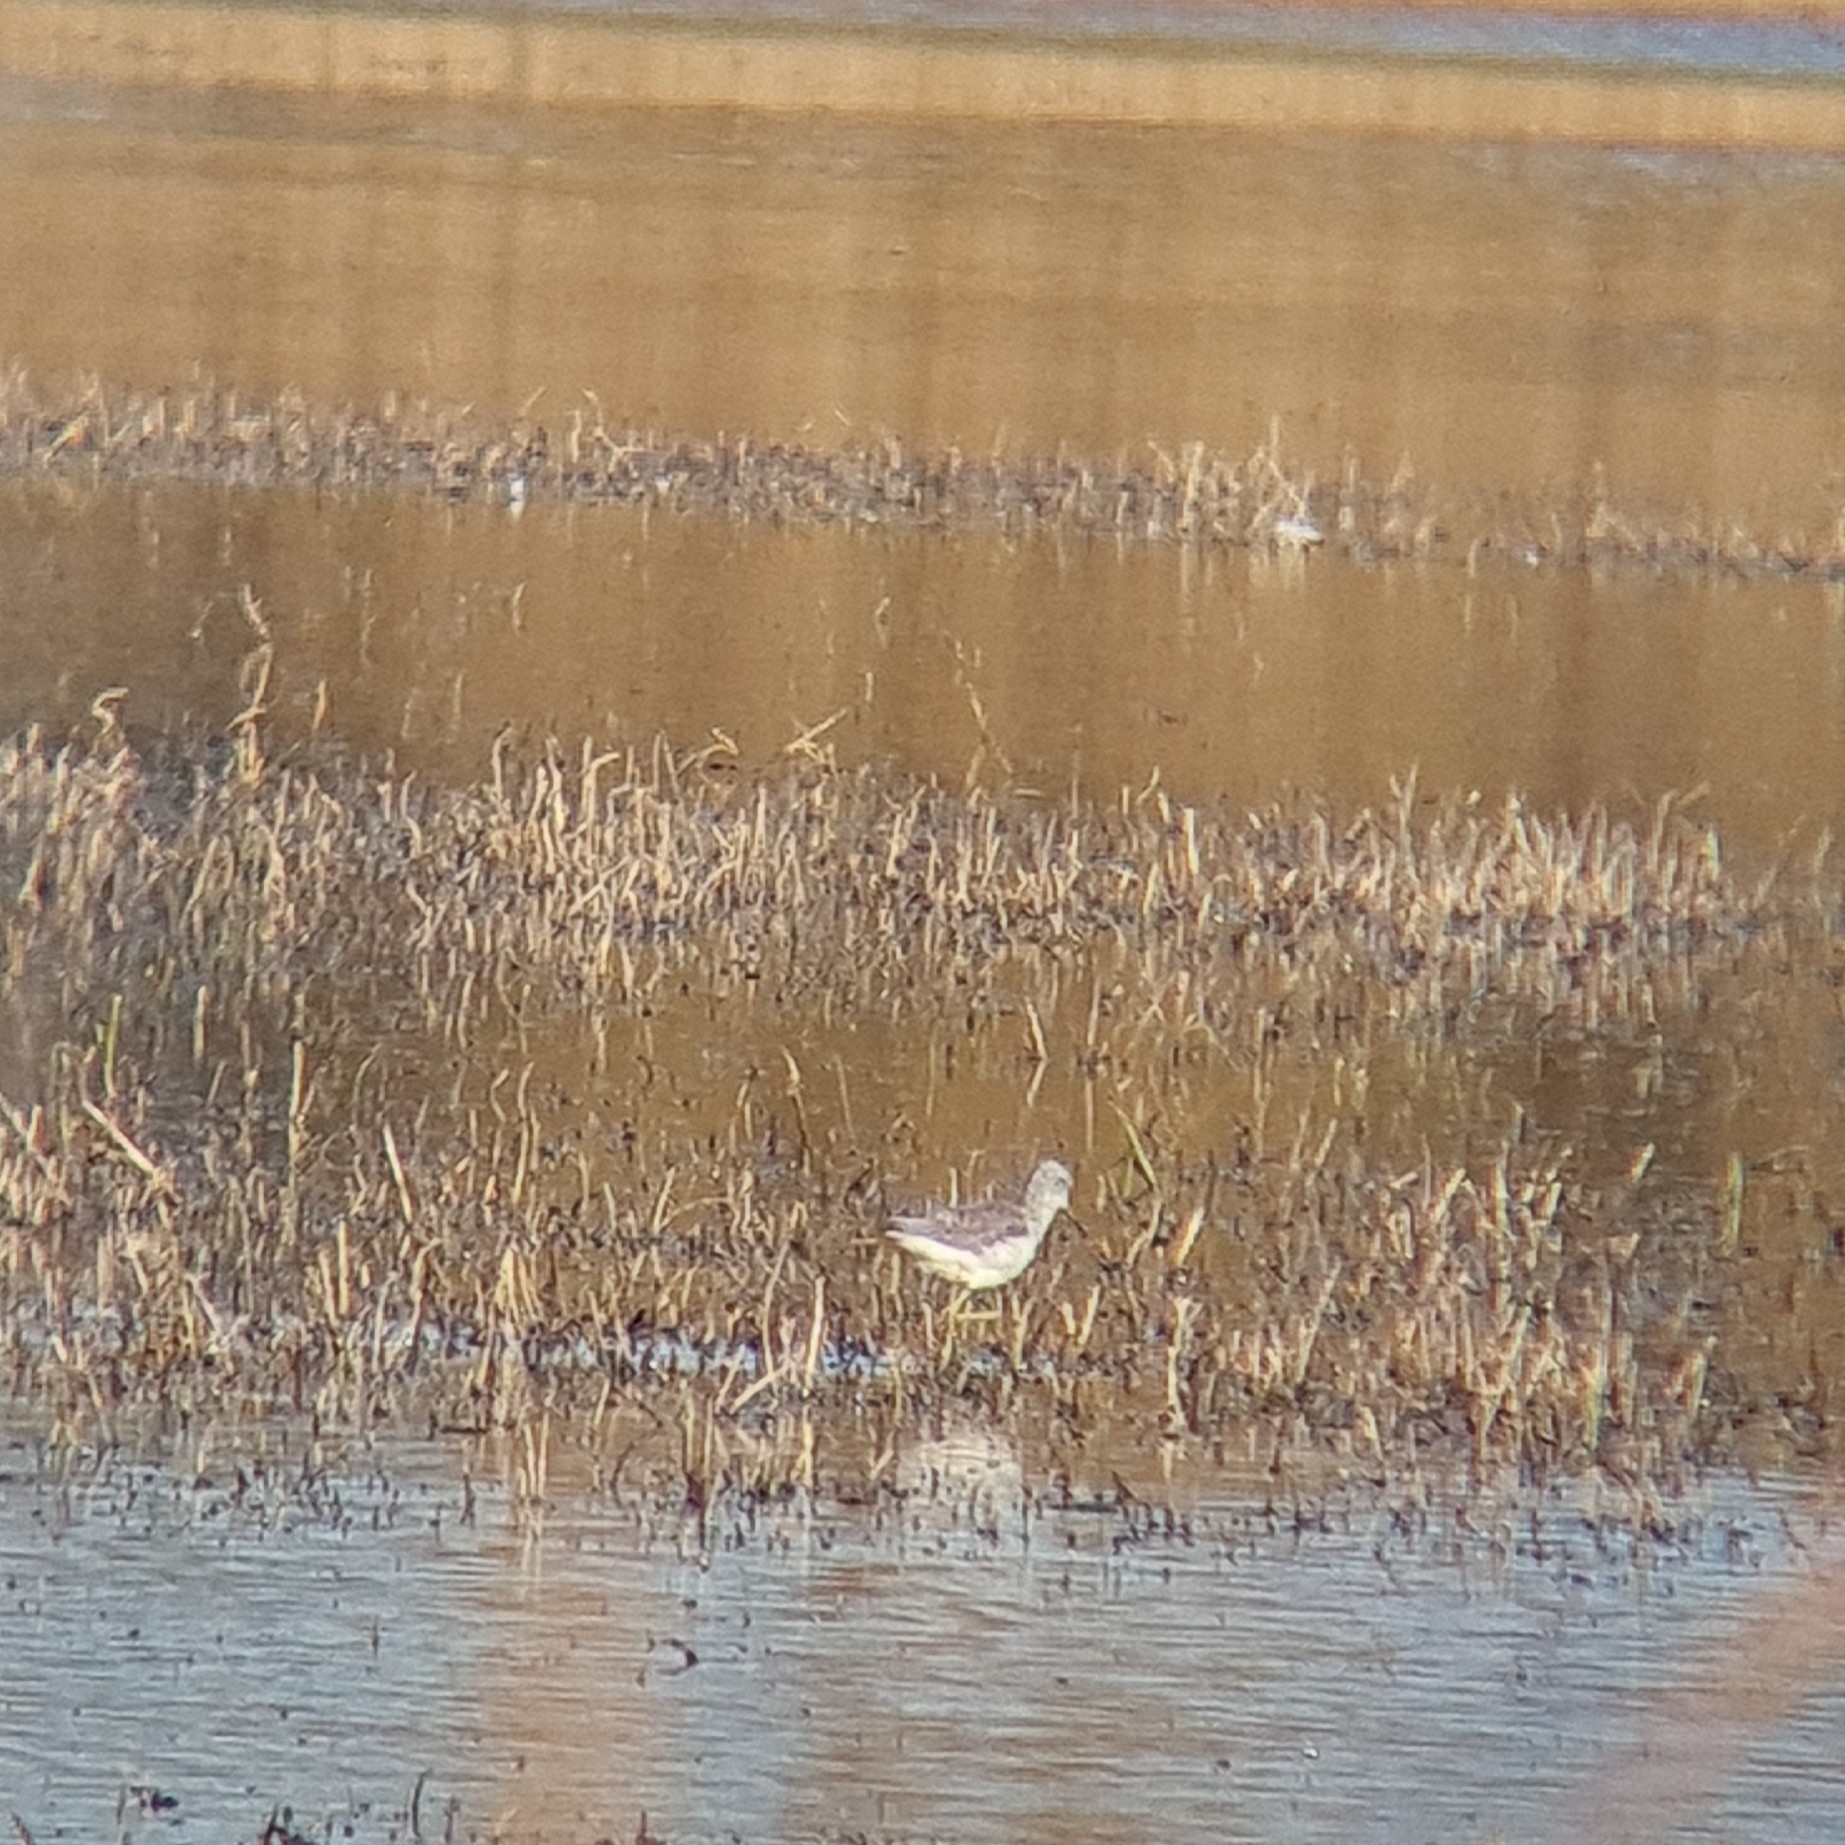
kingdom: Animalia
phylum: Chordata
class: Aves
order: Charadriiformes
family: Scolopacidae
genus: Tringa
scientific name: Tringa nebularia
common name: Common greenshank
